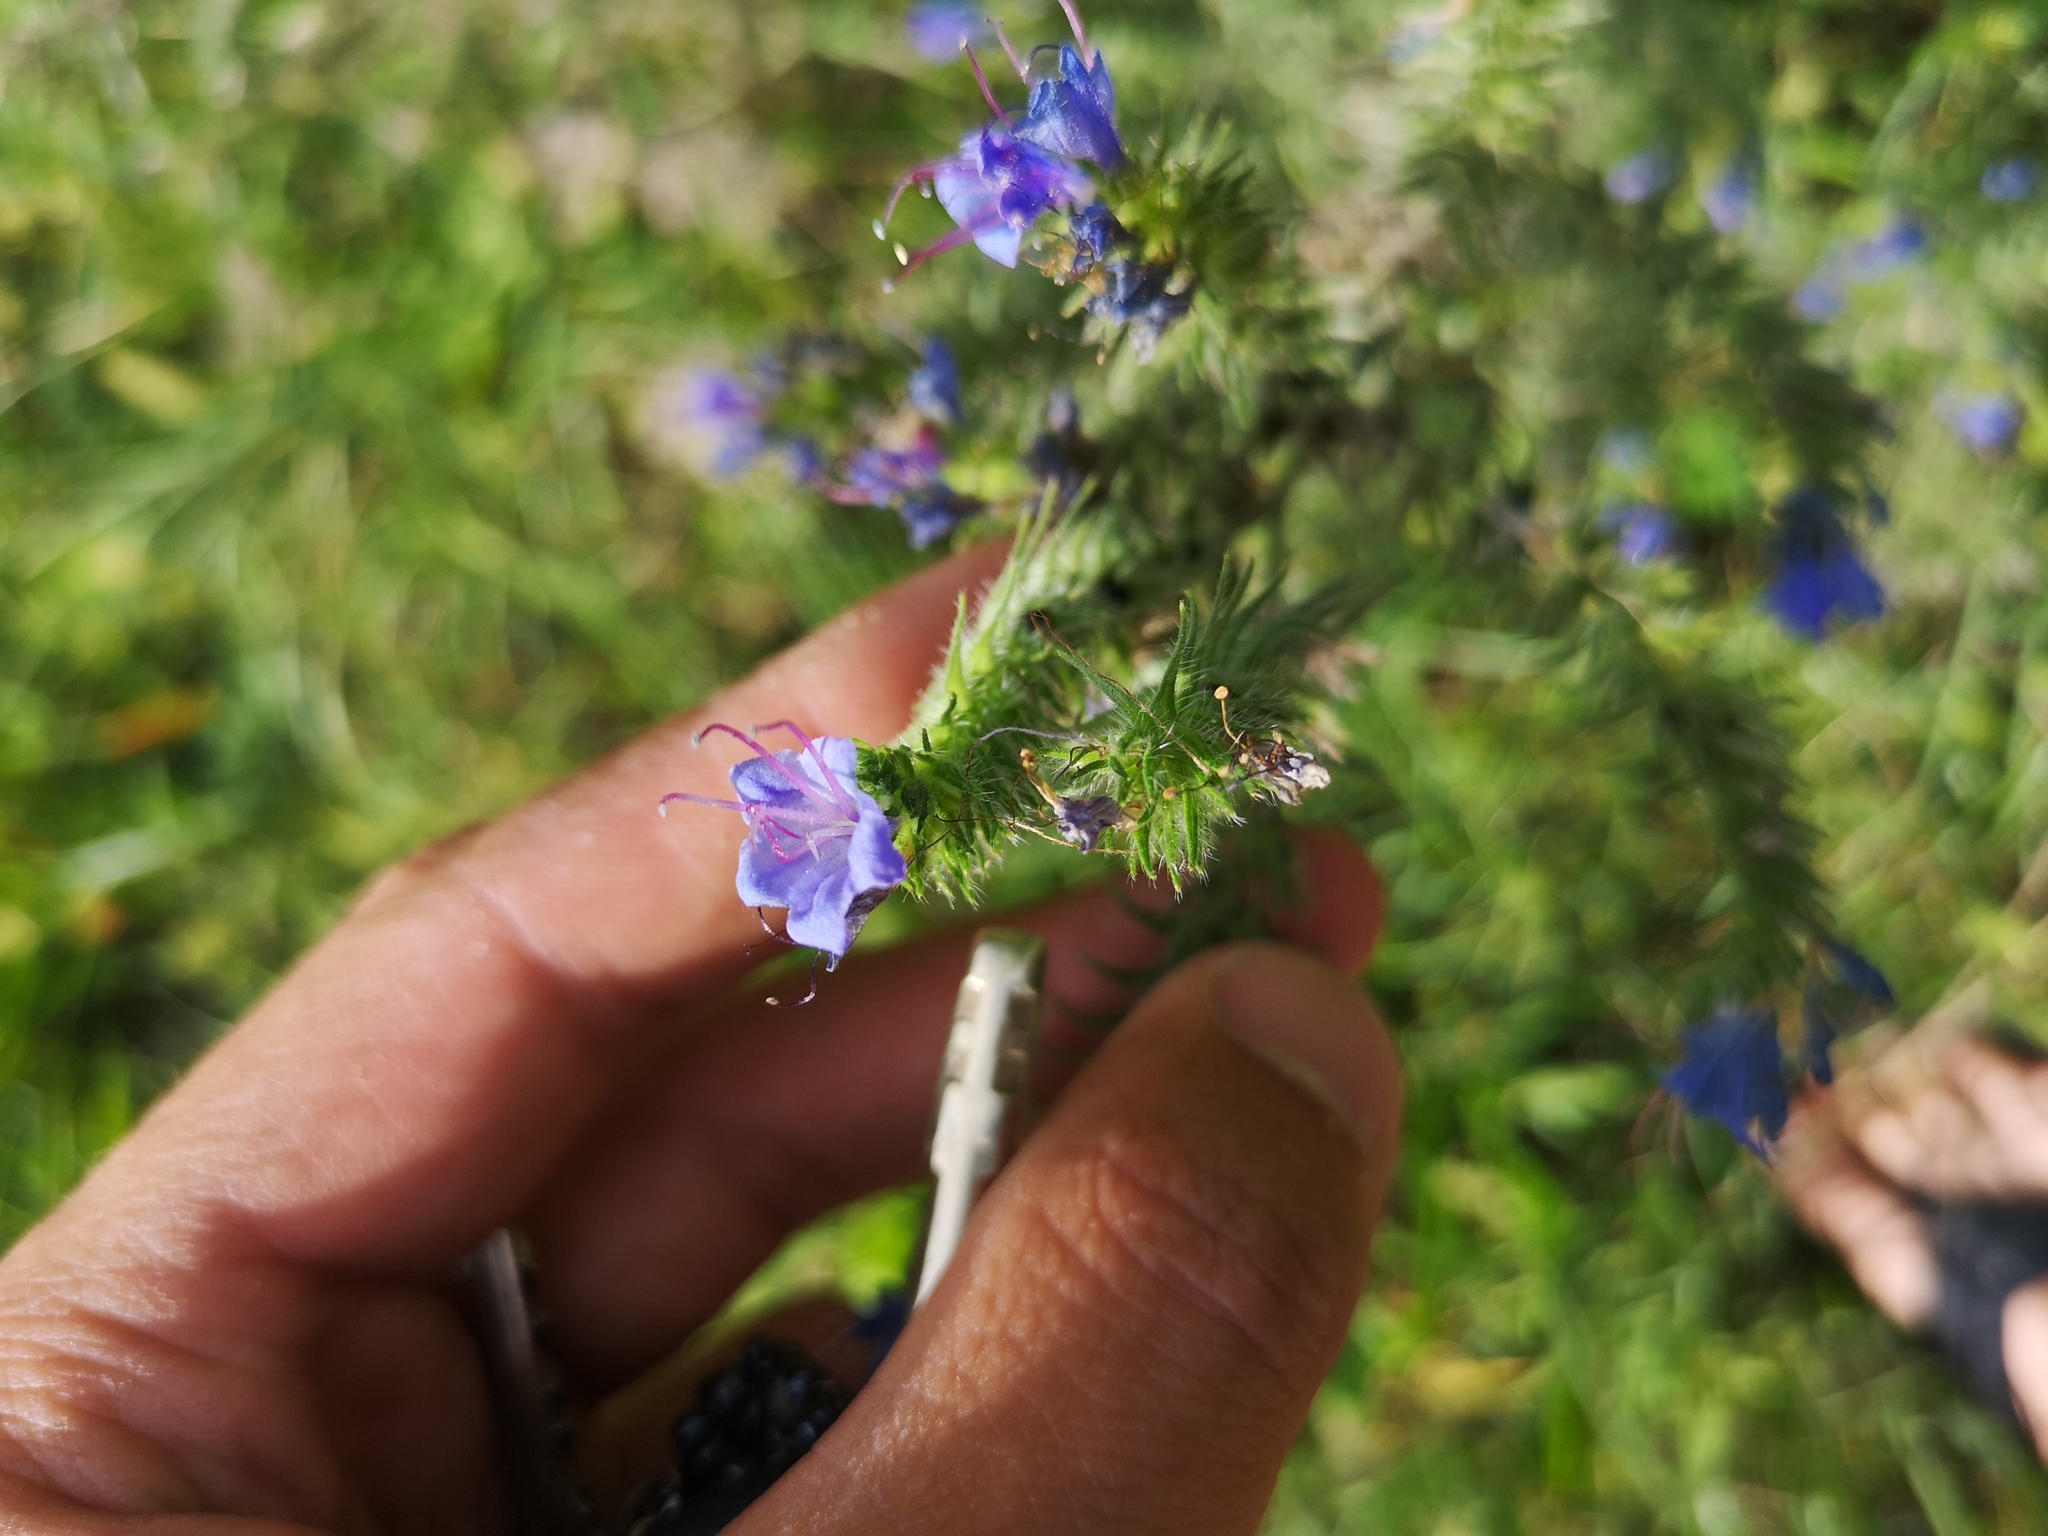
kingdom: Plantae
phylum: Tracheophyta
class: Magnoliopsida
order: Boraginales
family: Boraginaceae
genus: Echium
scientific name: Echium vulgare
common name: Common viper's bugloss
